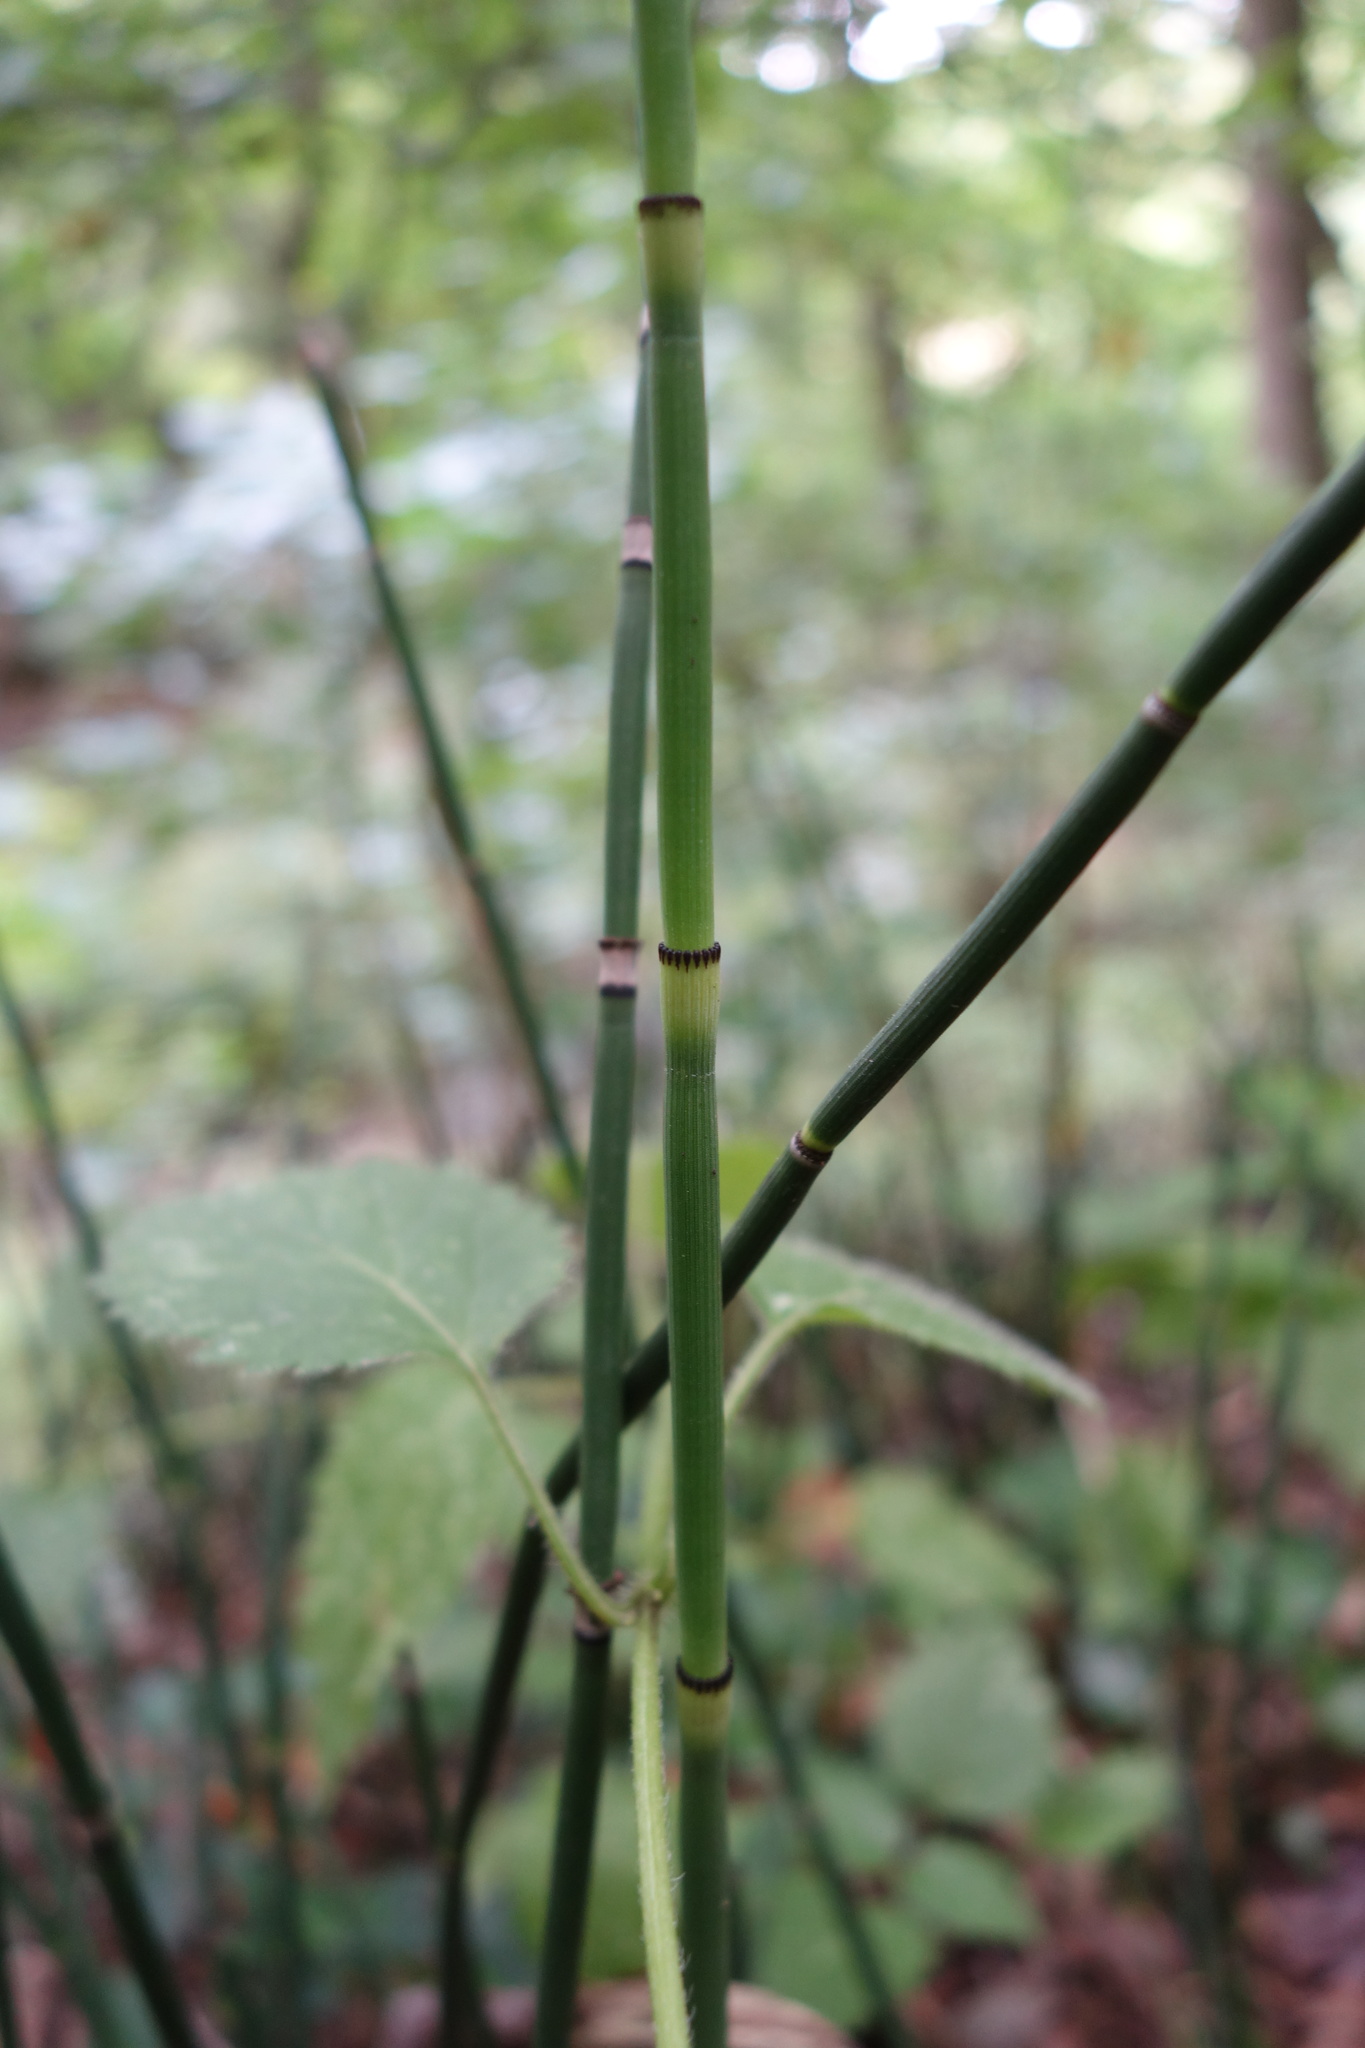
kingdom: Plantae
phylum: Tracheophyta
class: Polypodiopsida
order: Equisetales
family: Equisetaceae
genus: Equisetum
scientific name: Equisetum hyemale
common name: Rough horsetail
